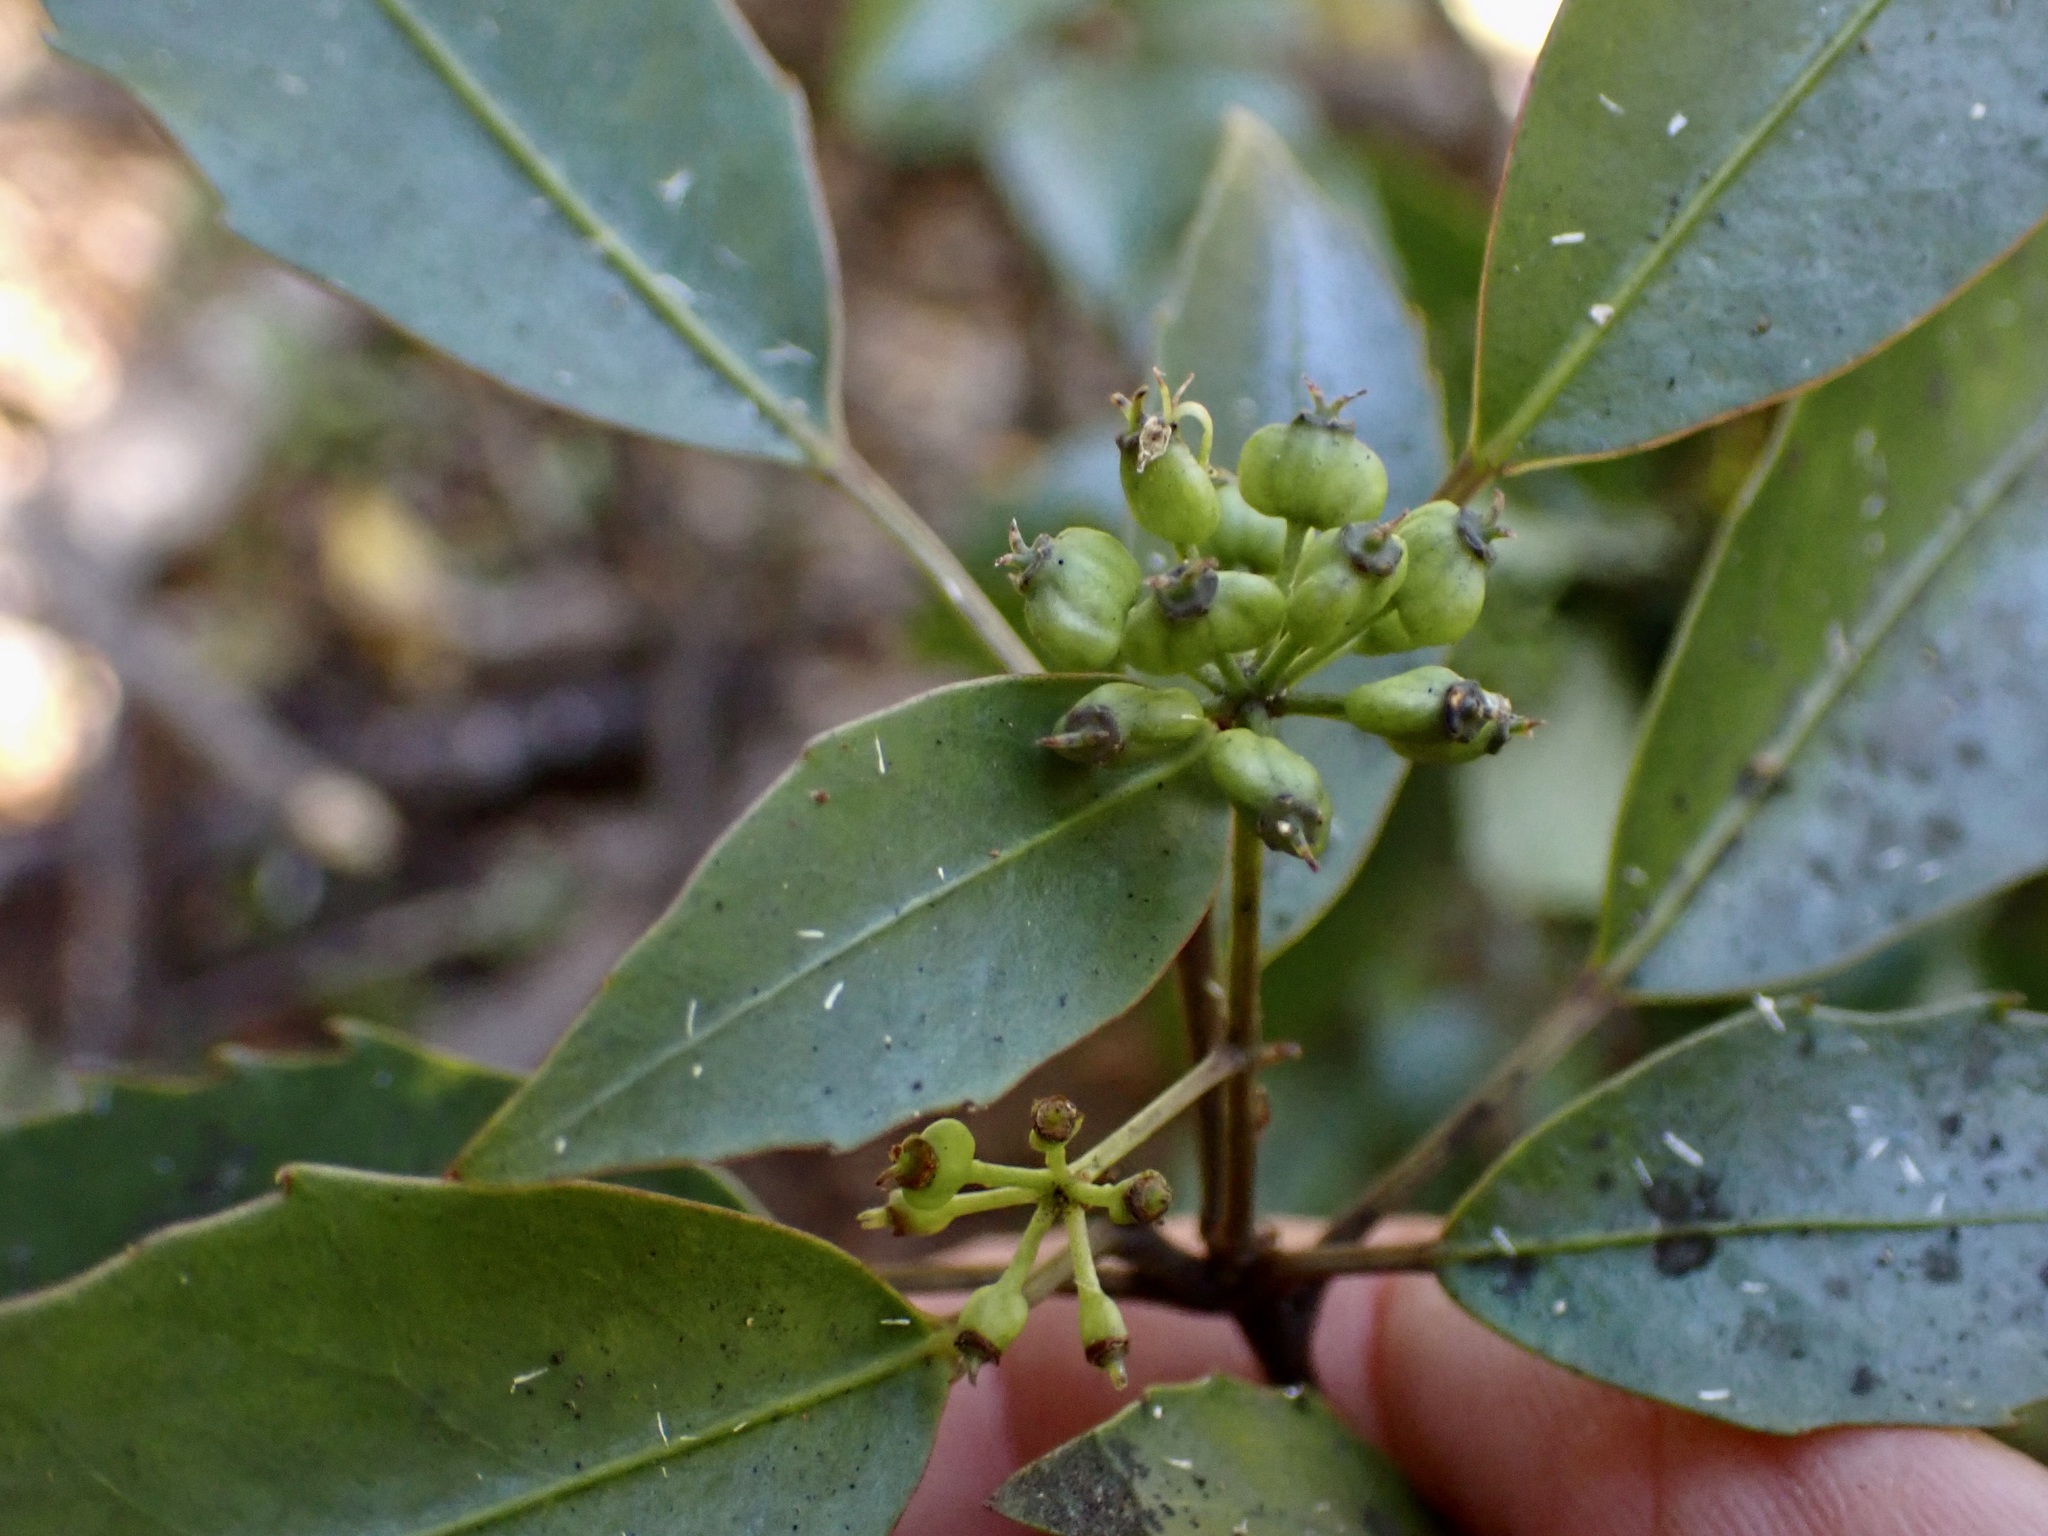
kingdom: Plantae
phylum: Tracheophyta
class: Magnoliopsida
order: Apiales
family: Araliaceae
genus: Raukaua
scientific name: Raukaua simplex
